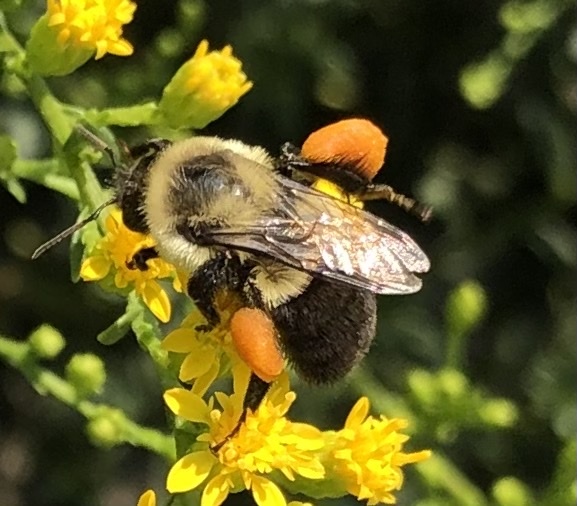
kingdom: Animalia
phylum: Arthropoda
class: Insecta
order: Hymenoptera
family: Apidae
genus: Bombus
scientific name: Bombus impatiens
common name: Common eastern bumble bee
